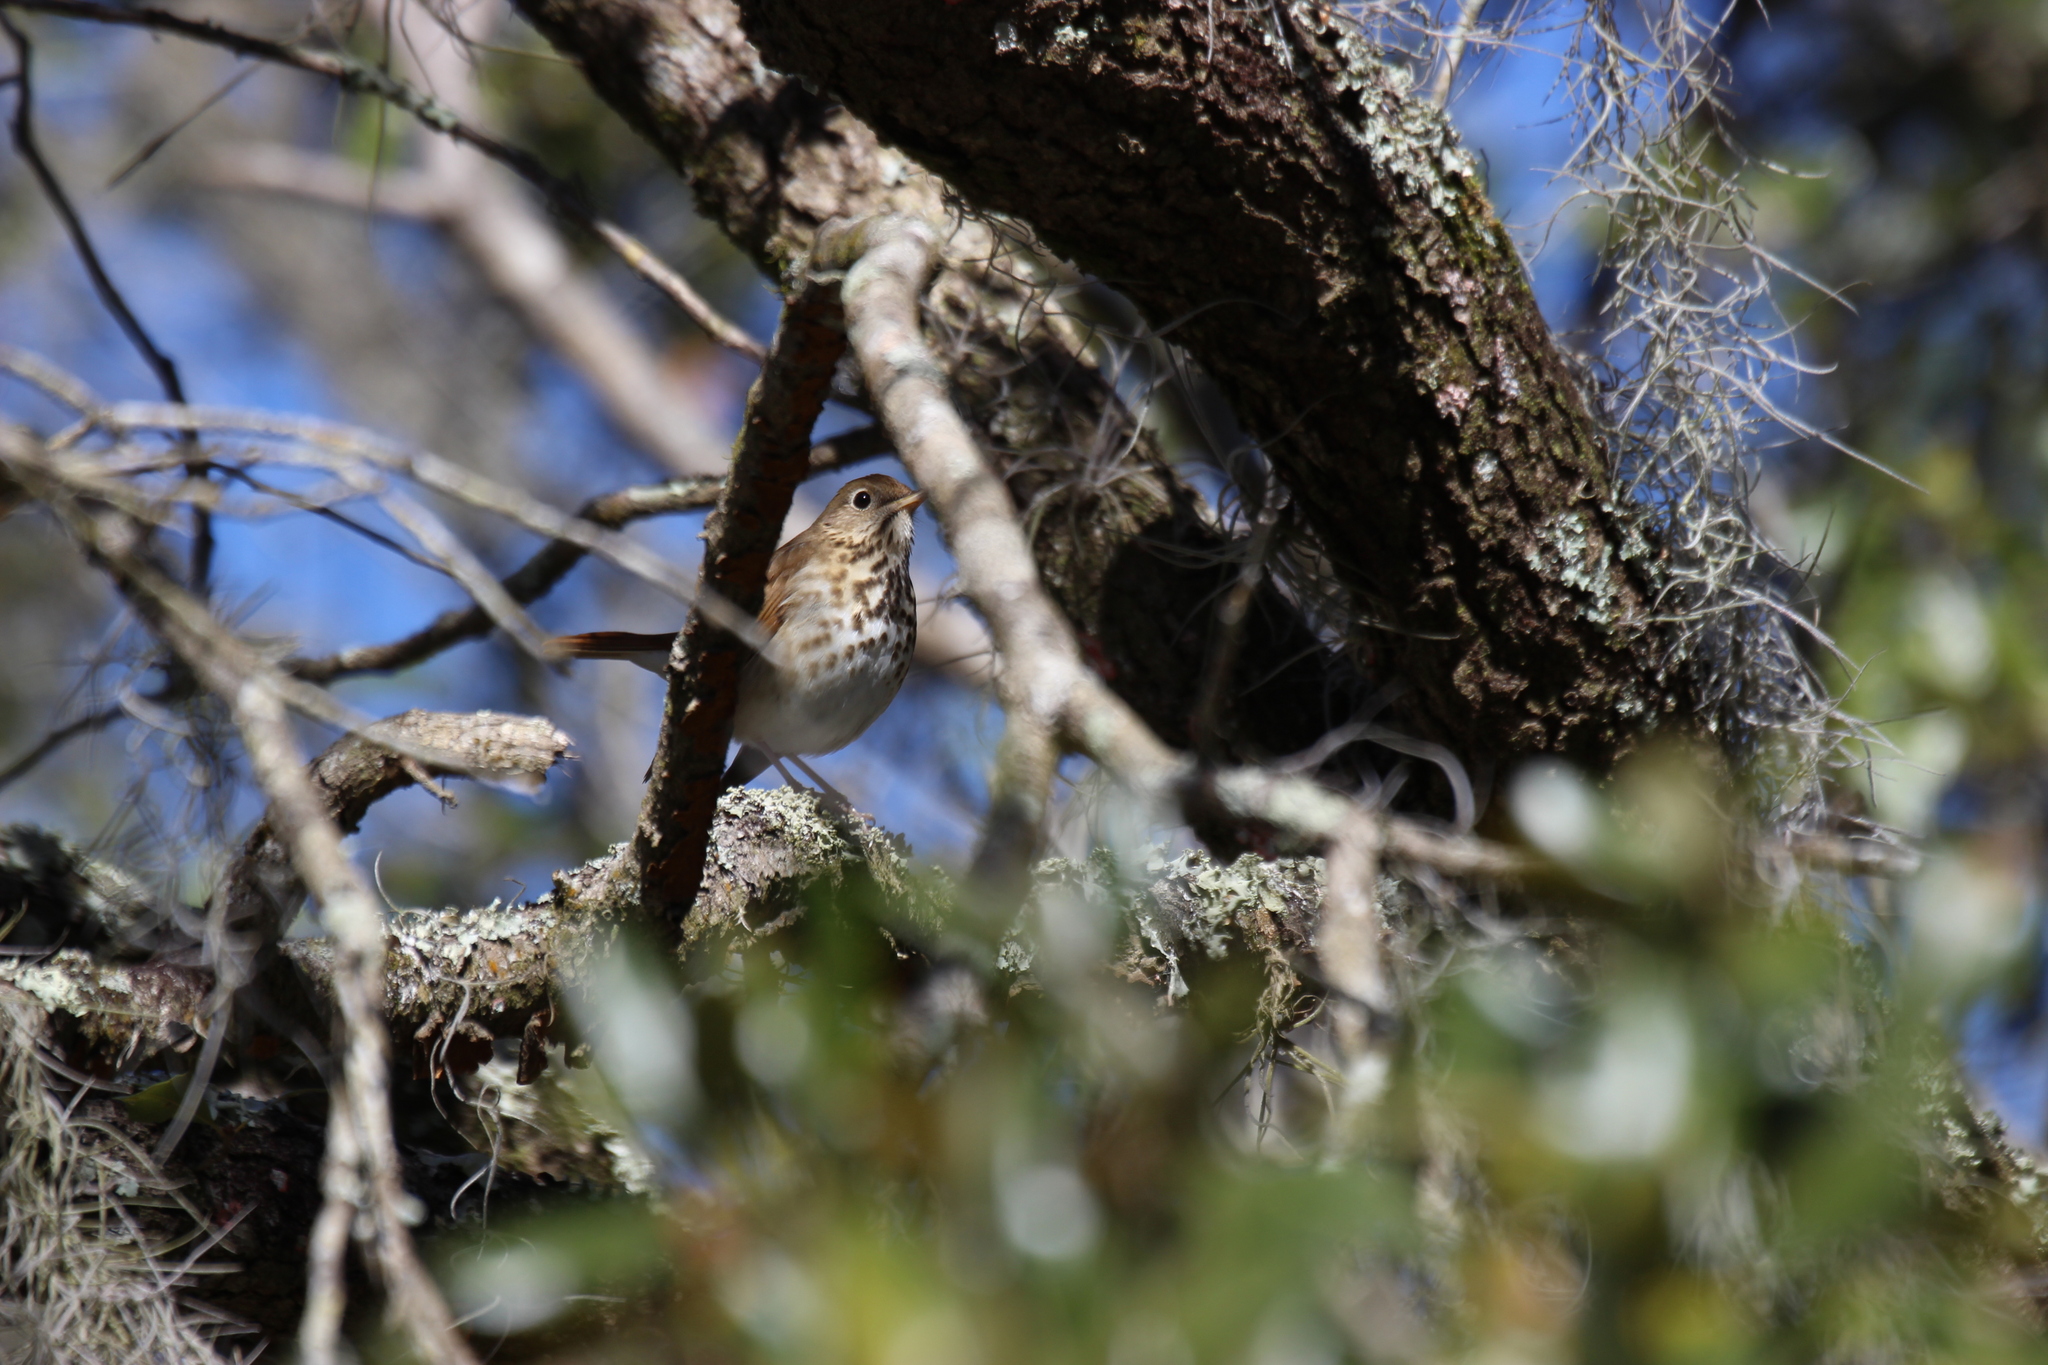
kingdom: Animalia
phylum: Chordata
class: Aves
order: Passeriformes
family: Turdidae
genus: Catharus
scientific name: Catharus guttatus
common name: Hermit thrush
